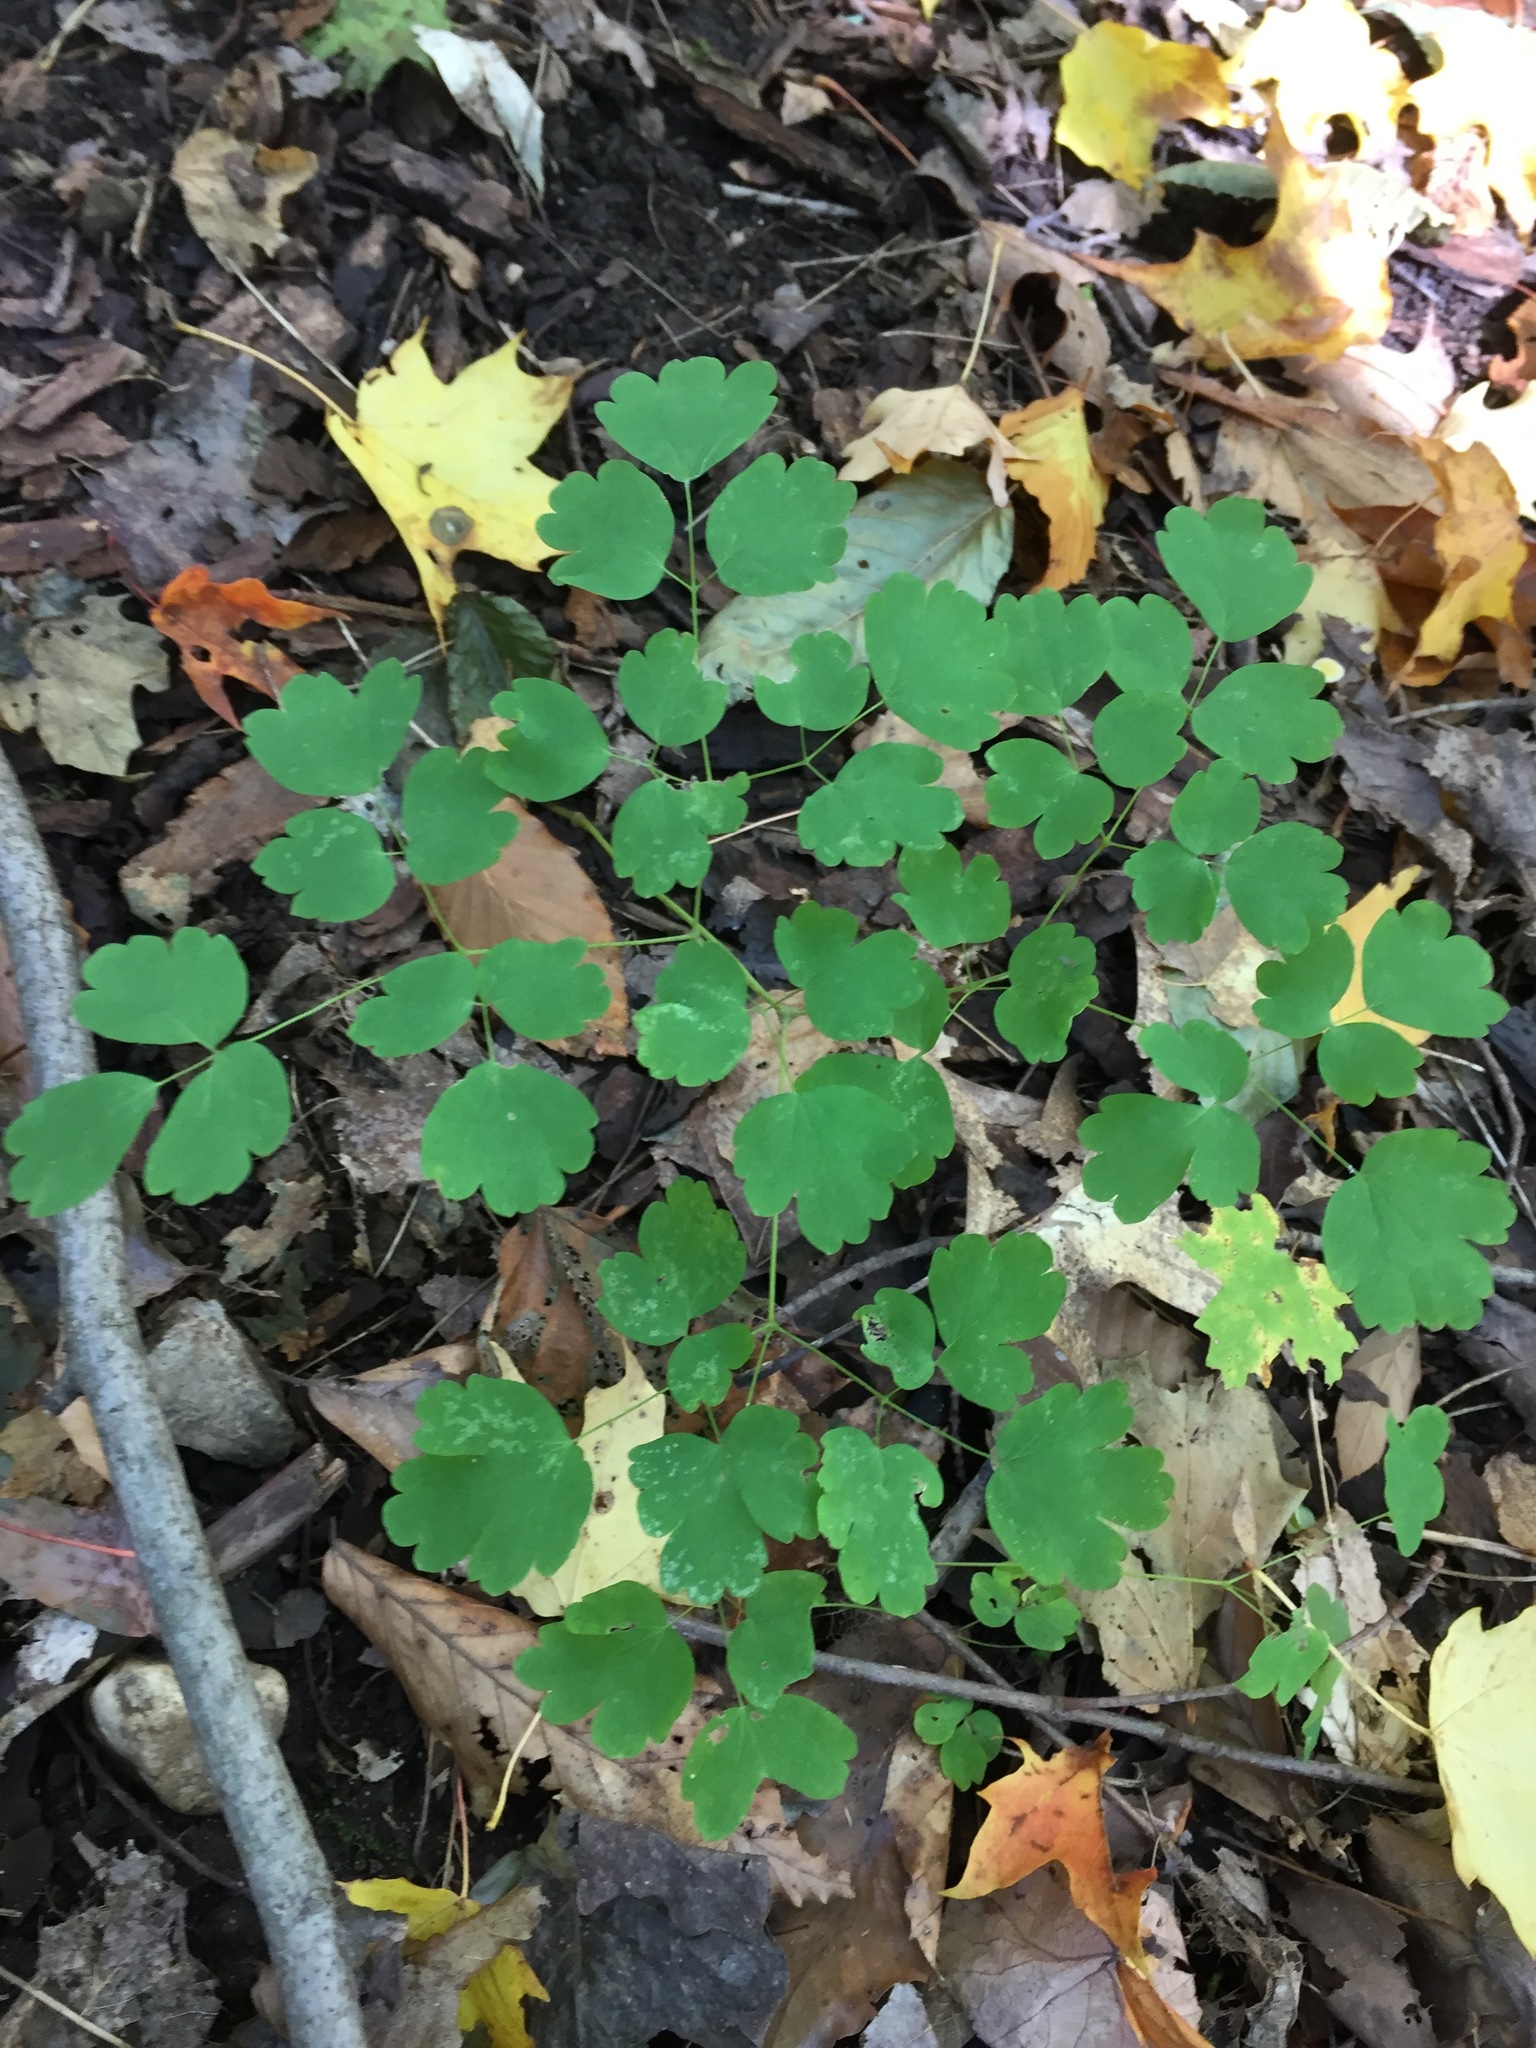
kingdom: Plantae
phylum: Tracheophyta
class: Magnoliopsida
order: Ranunculales
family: Ranunculaceae
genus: Thalictrum
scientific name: Thalictrum dioicum
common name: Early meadow-rue
